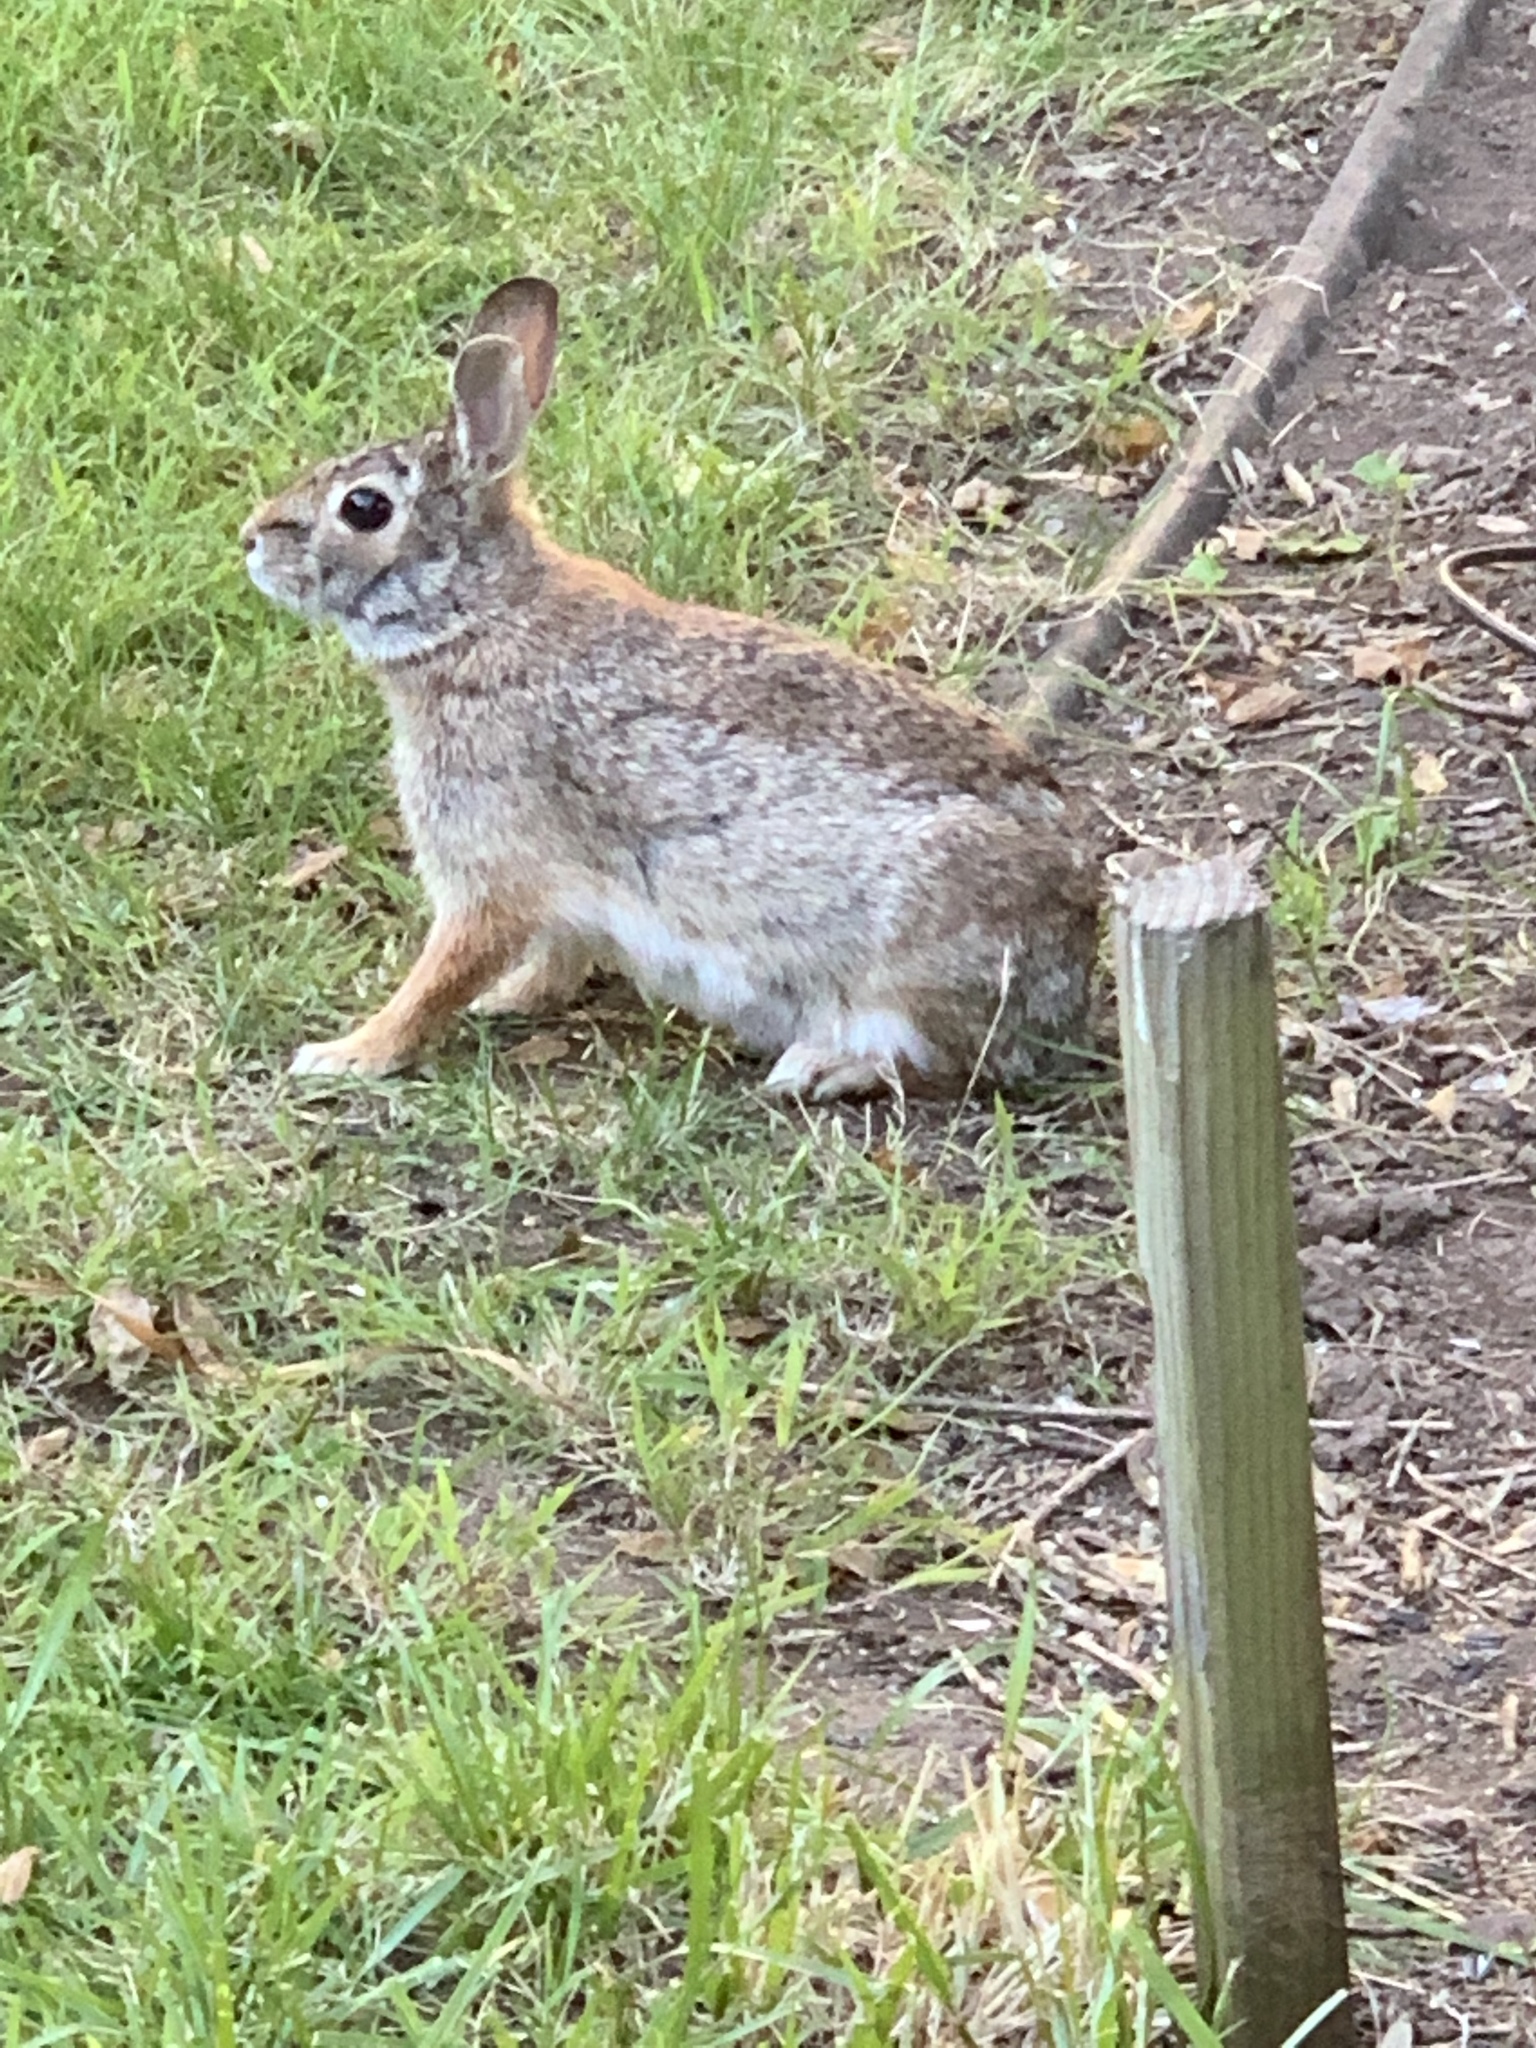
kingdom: Animalia
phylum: Chordata
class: Mammalia
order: Lagomorpha
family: Leporidae
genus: Sylvilagus
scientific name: Sylvilagus floridanus
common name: Eastern cottontail
